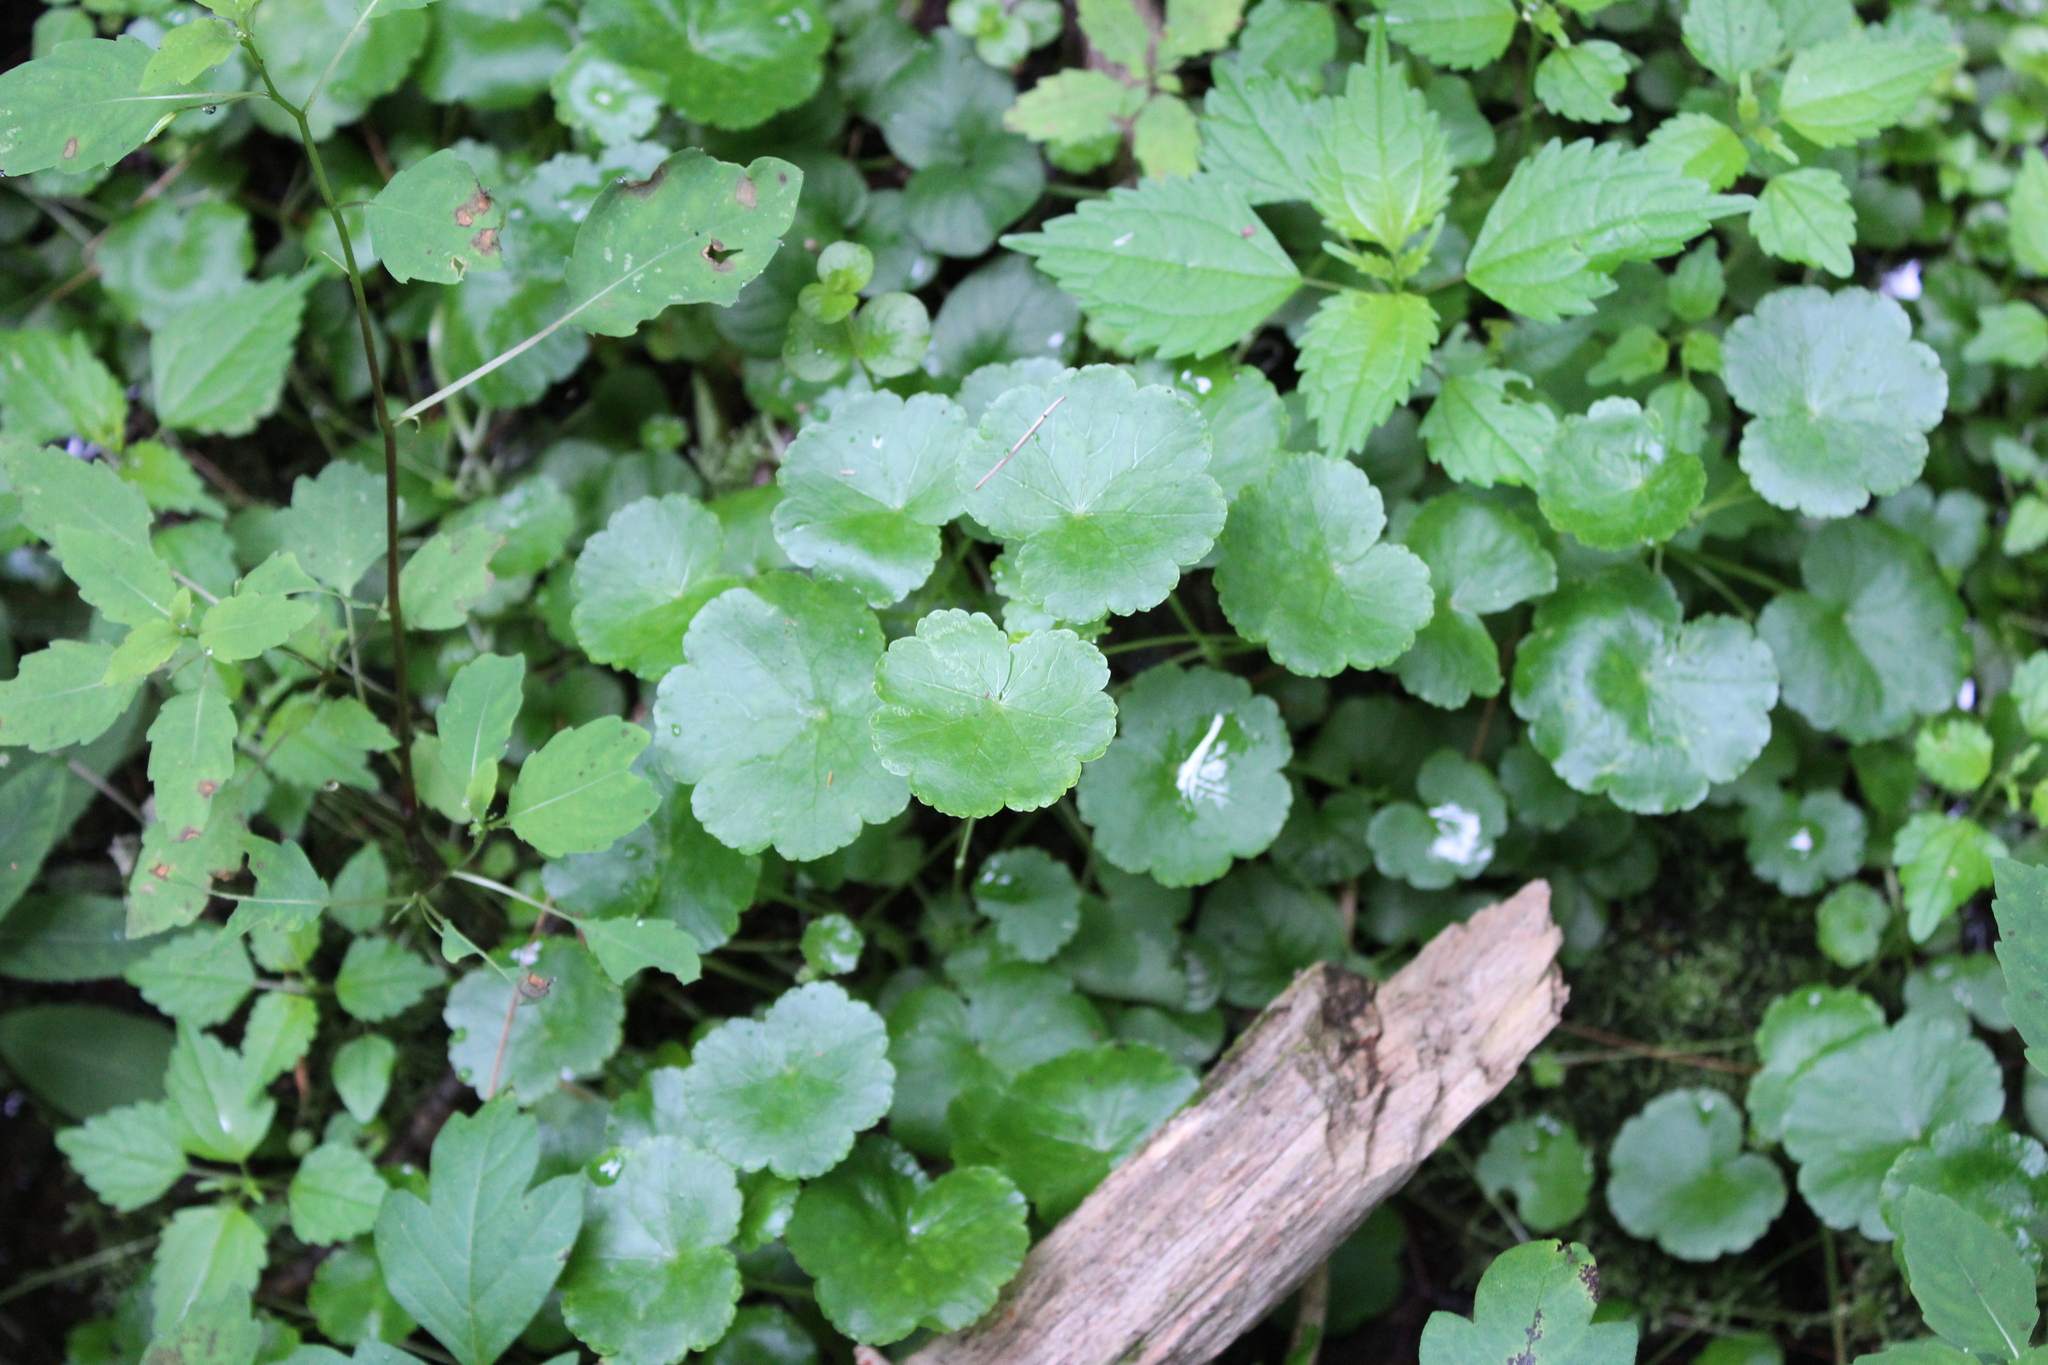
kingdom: Plantae
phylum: Tracheophyta
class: Magnoliopsida
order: Apiales
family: Araliaceae
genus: Hydrocotyle
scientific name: Hydrocotyle americana
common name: American water-pennywort
